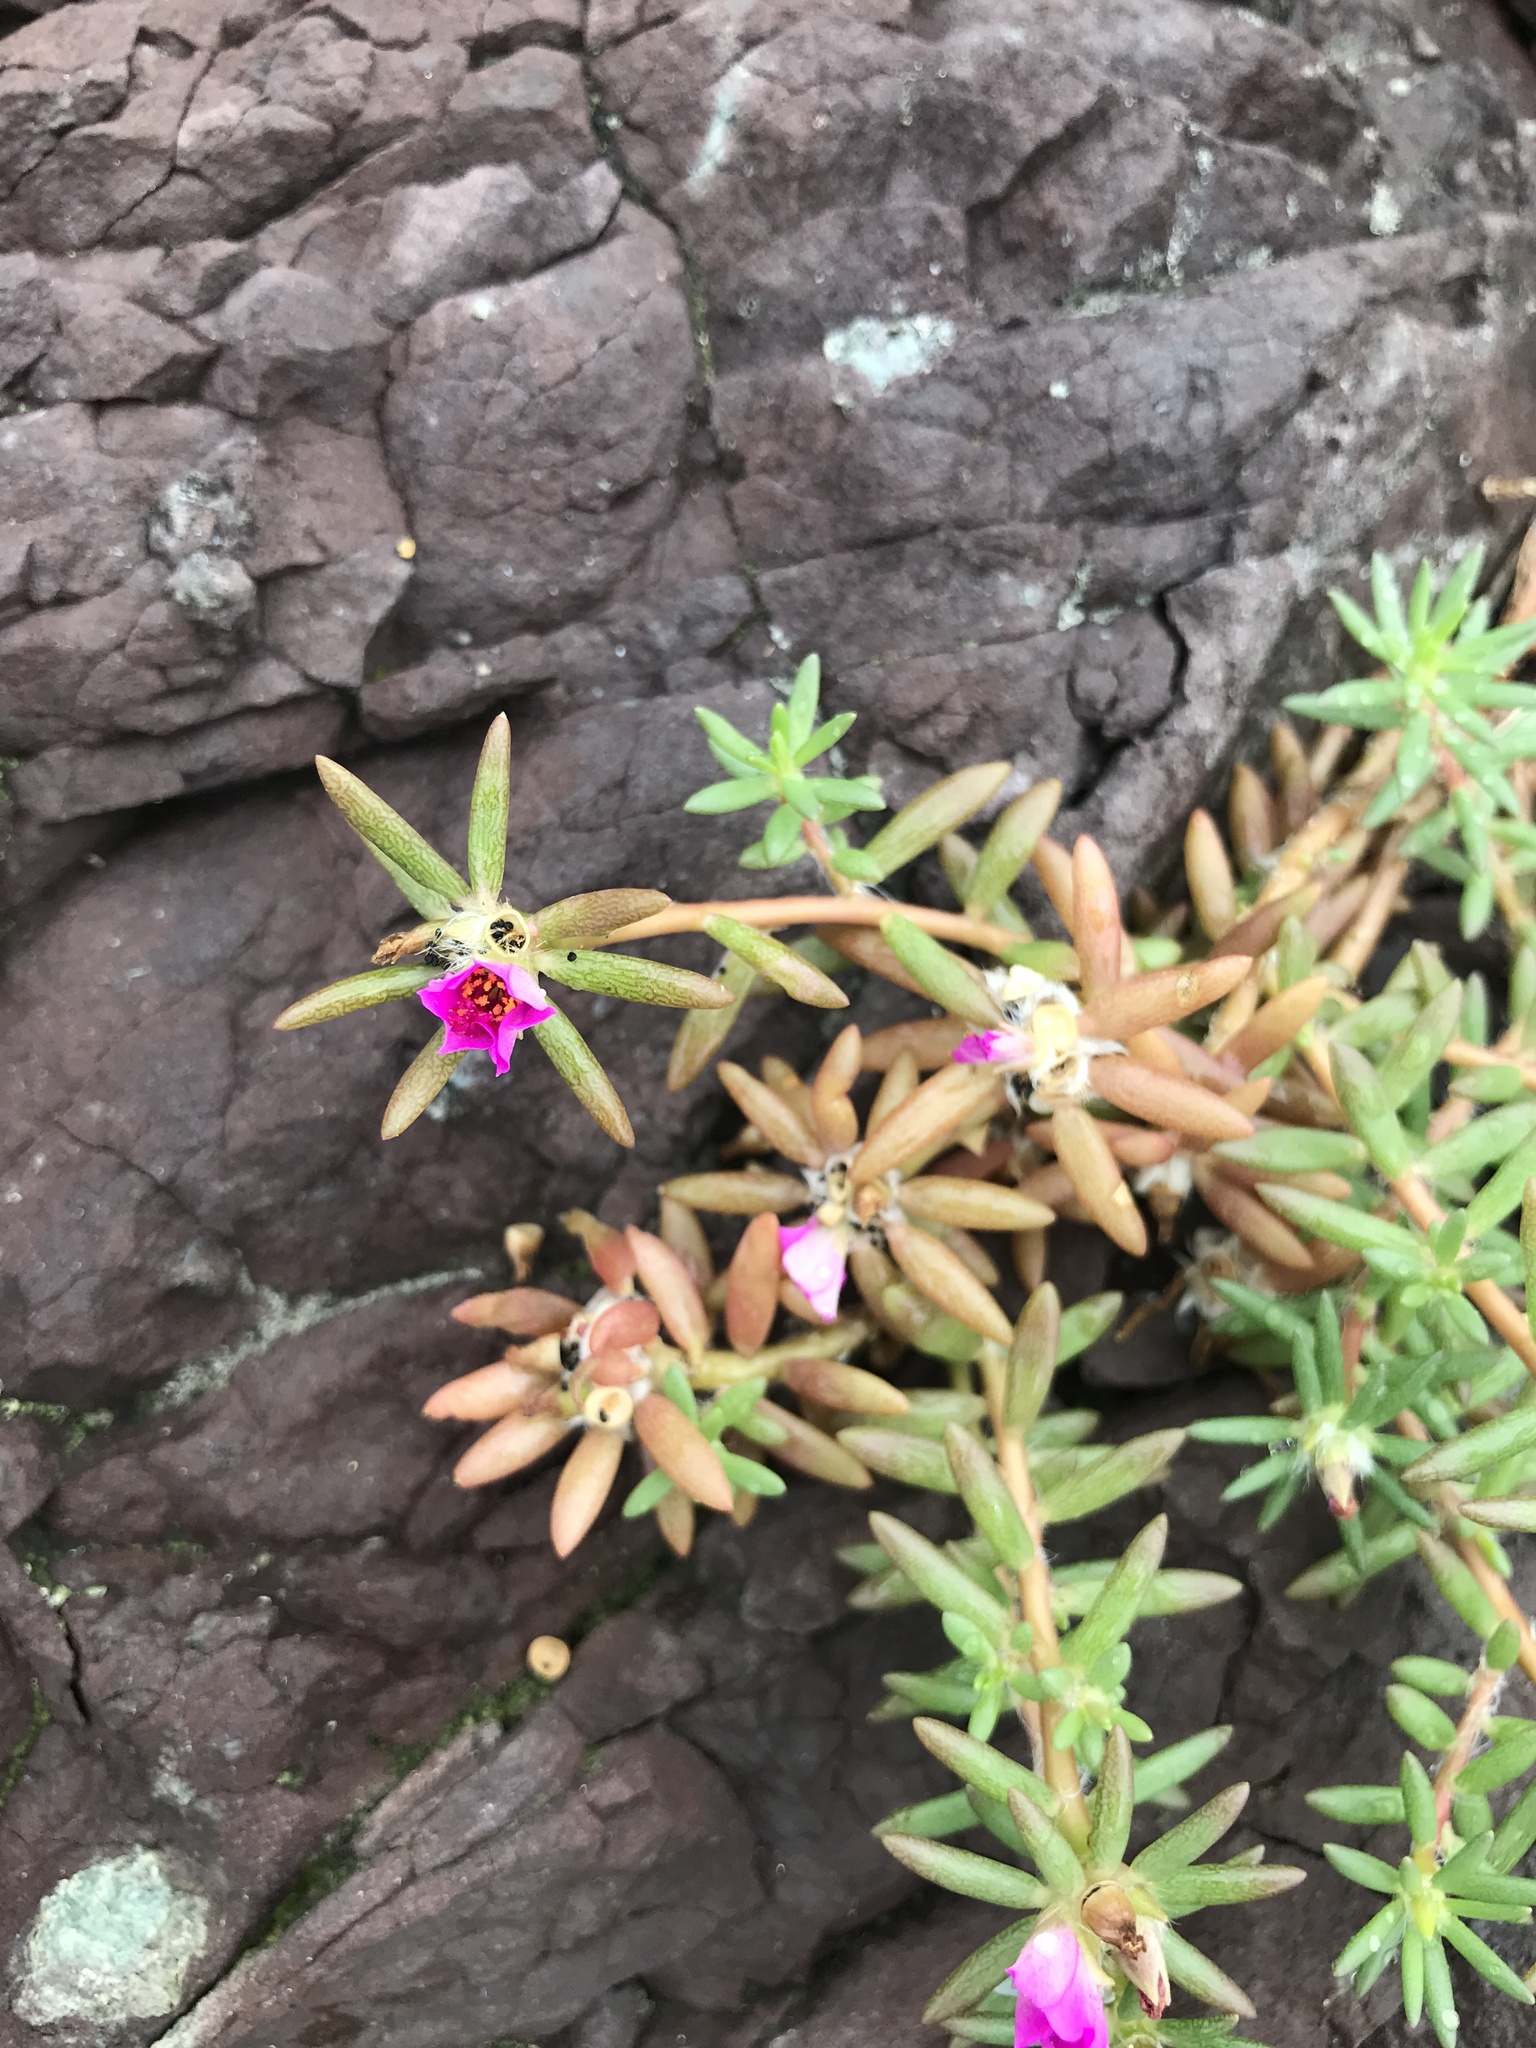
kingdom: Plantae
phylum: Tracheophyta
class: Magnoliopsida
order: Caryophyllales
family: Portulacaceae
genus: Portulaca
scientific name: Portulaca pilosa
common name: Kiss me quick
